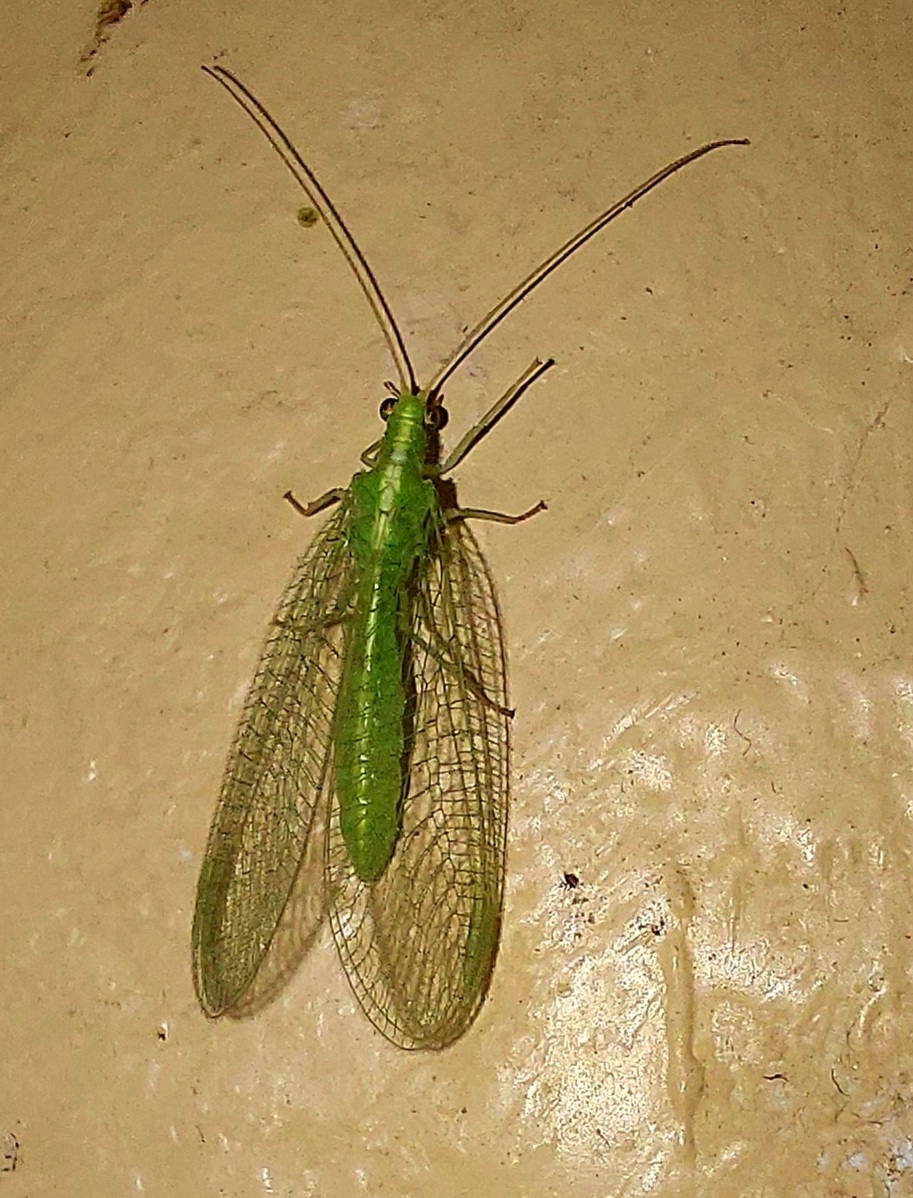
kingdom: Animalia
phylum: Arthropoda
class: Insecta
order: Neuroptera
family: Chrysopidae
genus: Chrysoperla
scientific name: Chrysoperla
